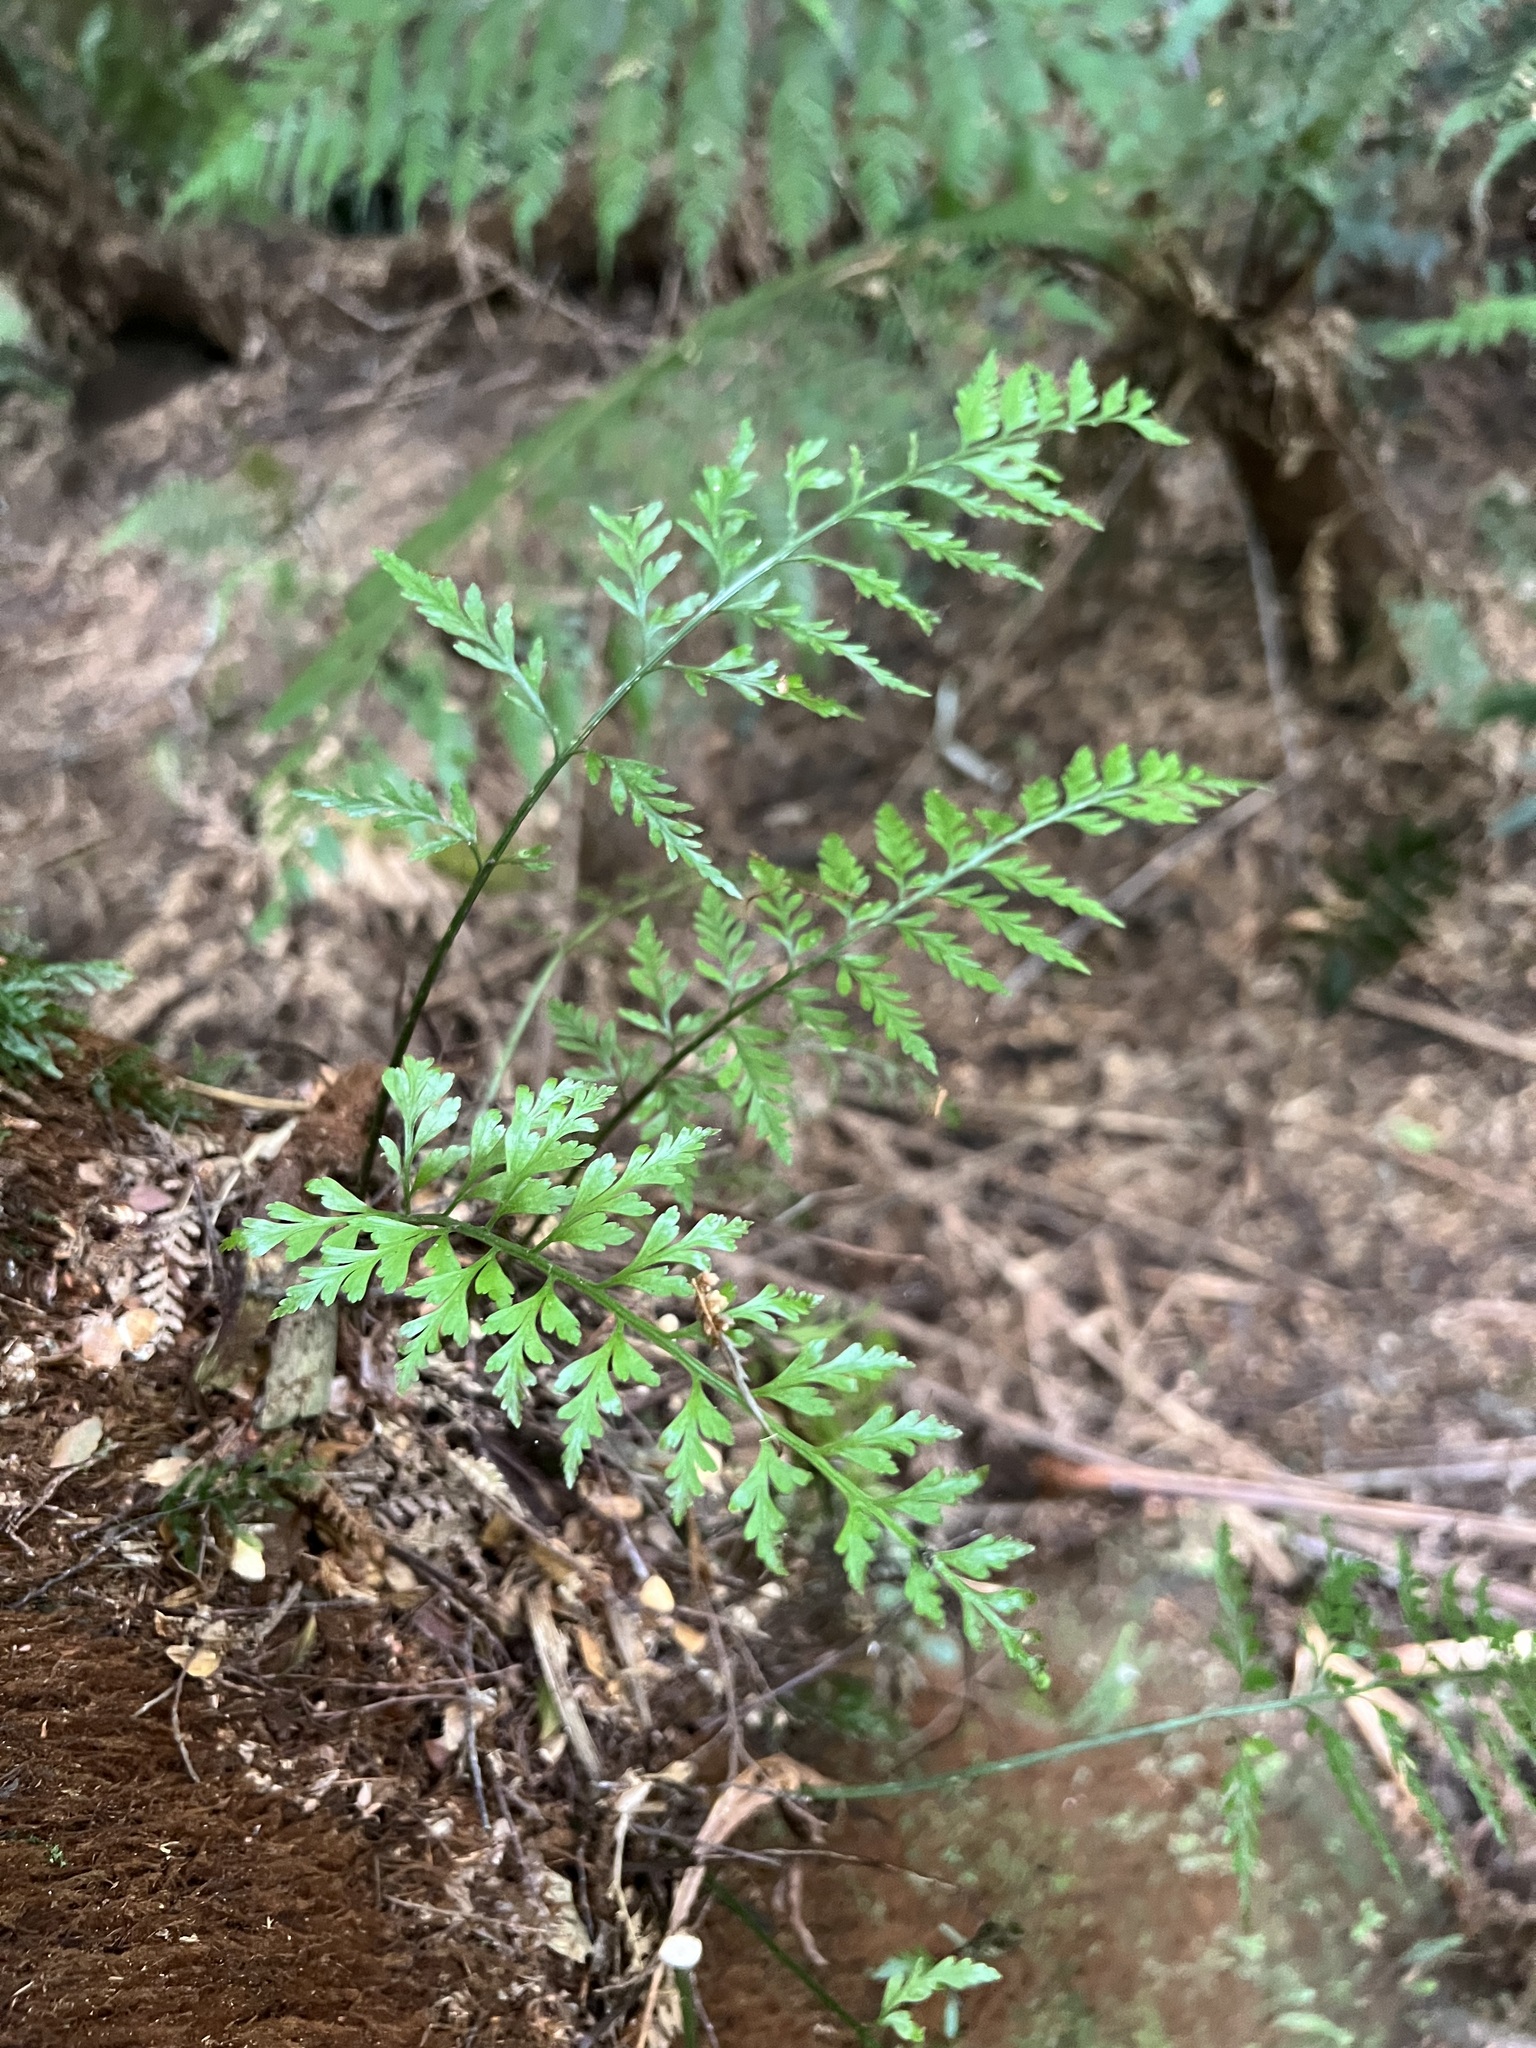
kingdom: Plantae
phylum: Tracheophyta
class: Polypodiopsida
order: Polypodiales
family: Aspleniaceae
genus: Asplenium
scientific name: Asplenium
